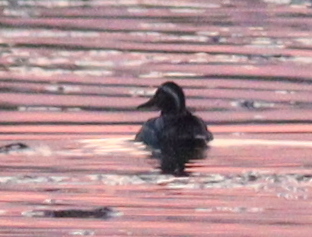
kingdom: Animalia
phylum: Chordata
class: Aves
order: Anseriformes
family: Anatidae
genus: Spatula
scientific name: Spatula querquedula
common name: Garganey
